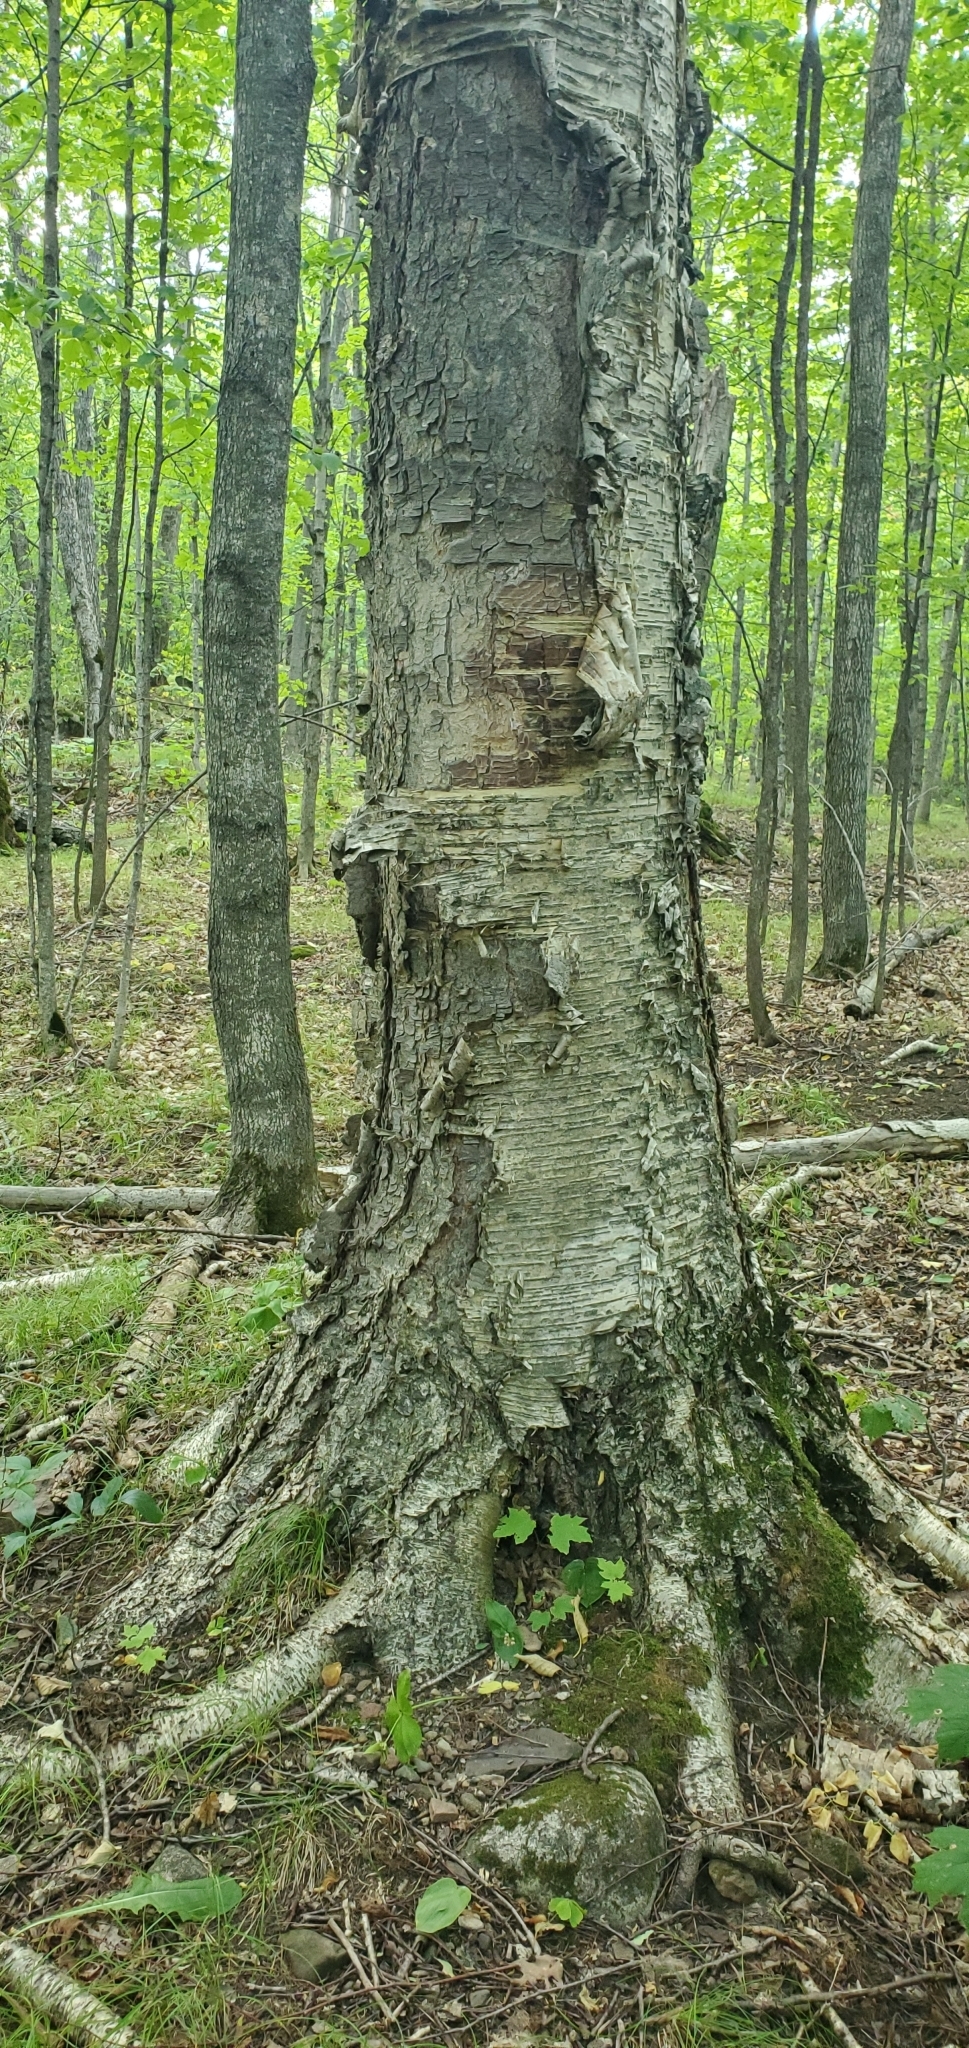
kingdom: Plantae
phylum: Tracheophyta
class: Magnoliopsida
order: Fagales
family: Betulaceae
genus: Betula
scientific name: Betula alleghaniensis
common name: Yellow birch
